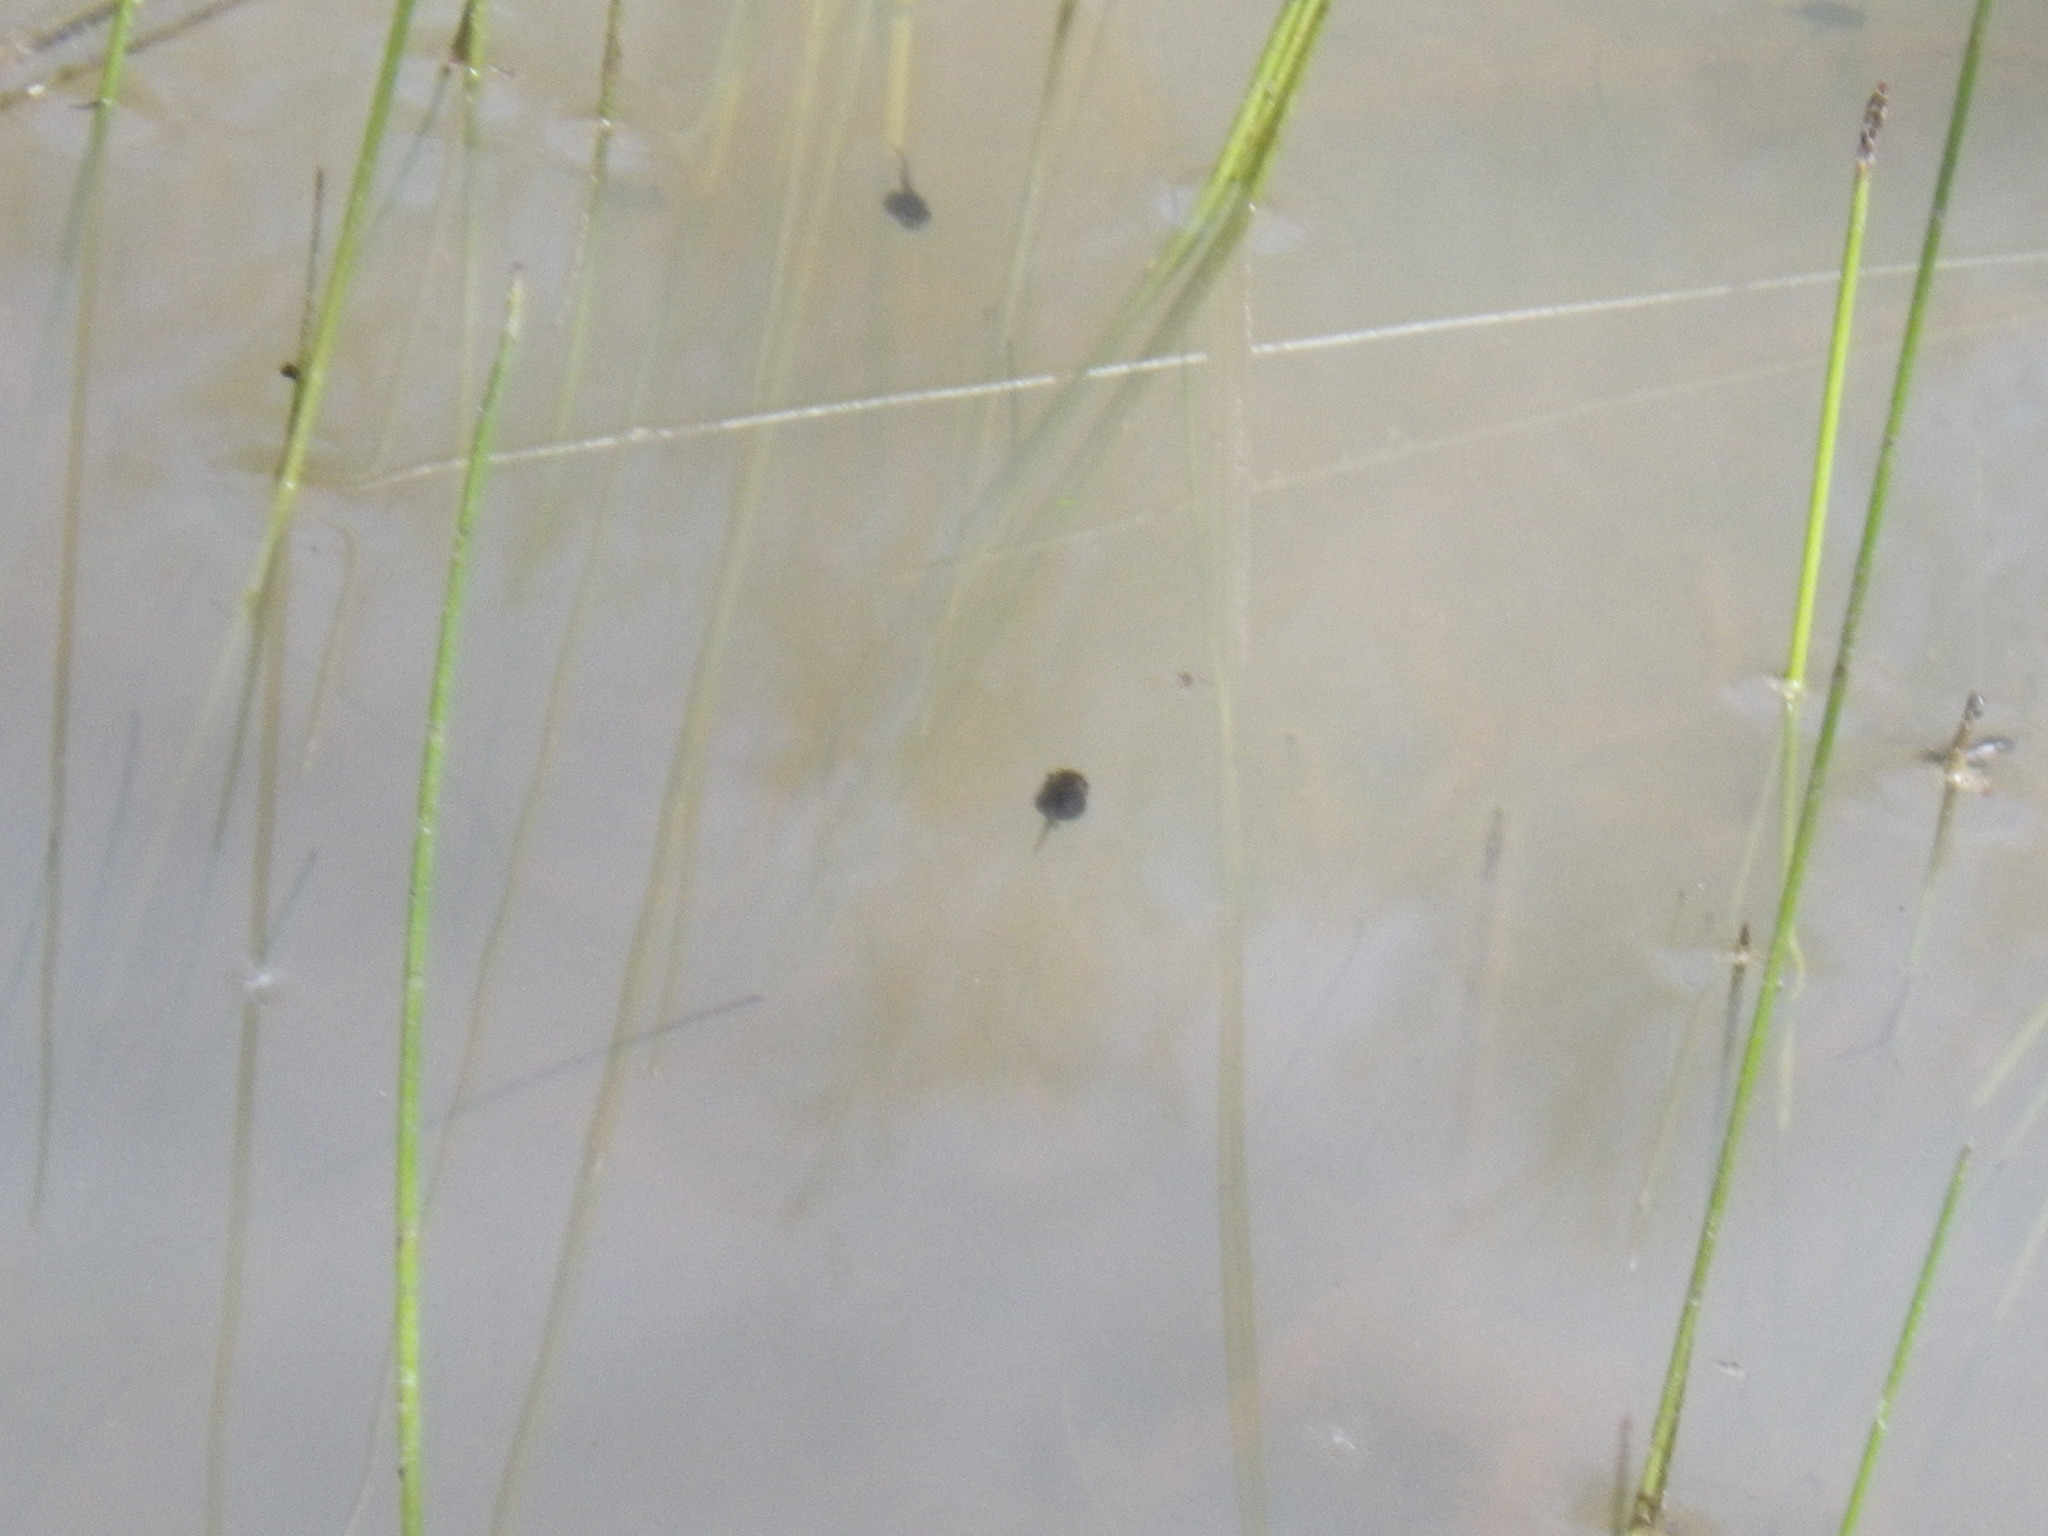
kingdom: Animalia
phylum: Chordata
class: Amphibia
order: Anura
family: Hylidae
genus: Pseudacris
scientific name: Pseudacris regilla
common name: Pacific chorus frog
